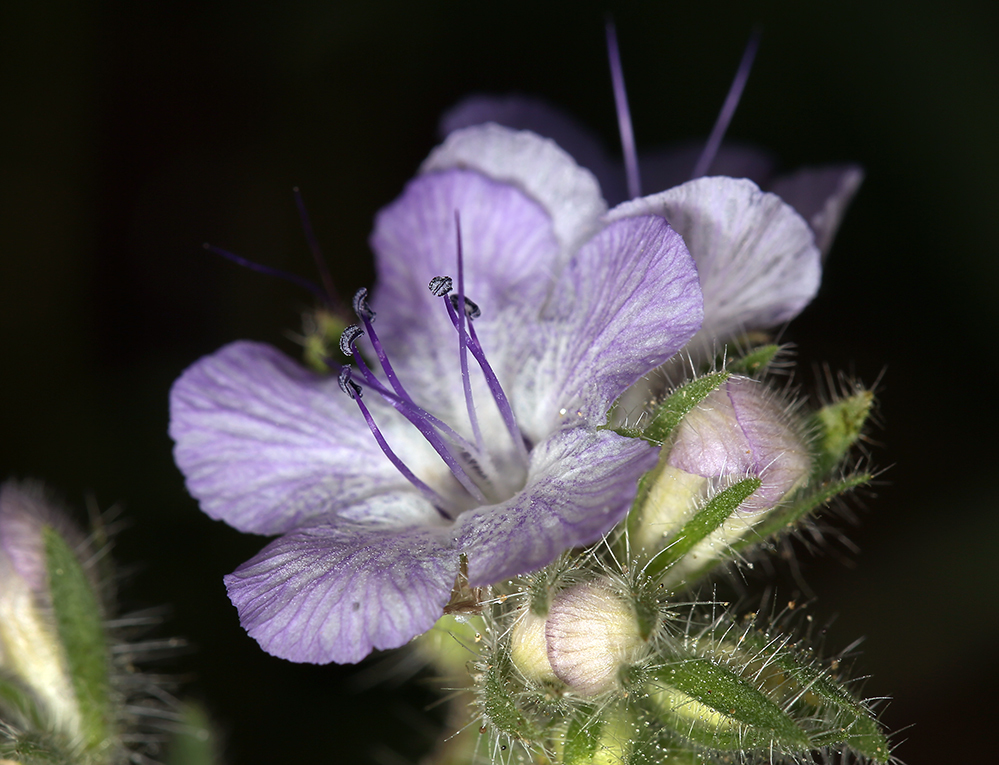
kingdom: Plantae
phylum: Tracheophyta
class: Magnoliopsida
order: Boraginales
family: Hydrophyllaceae
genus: Phacelia
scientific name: Phacelia distans
